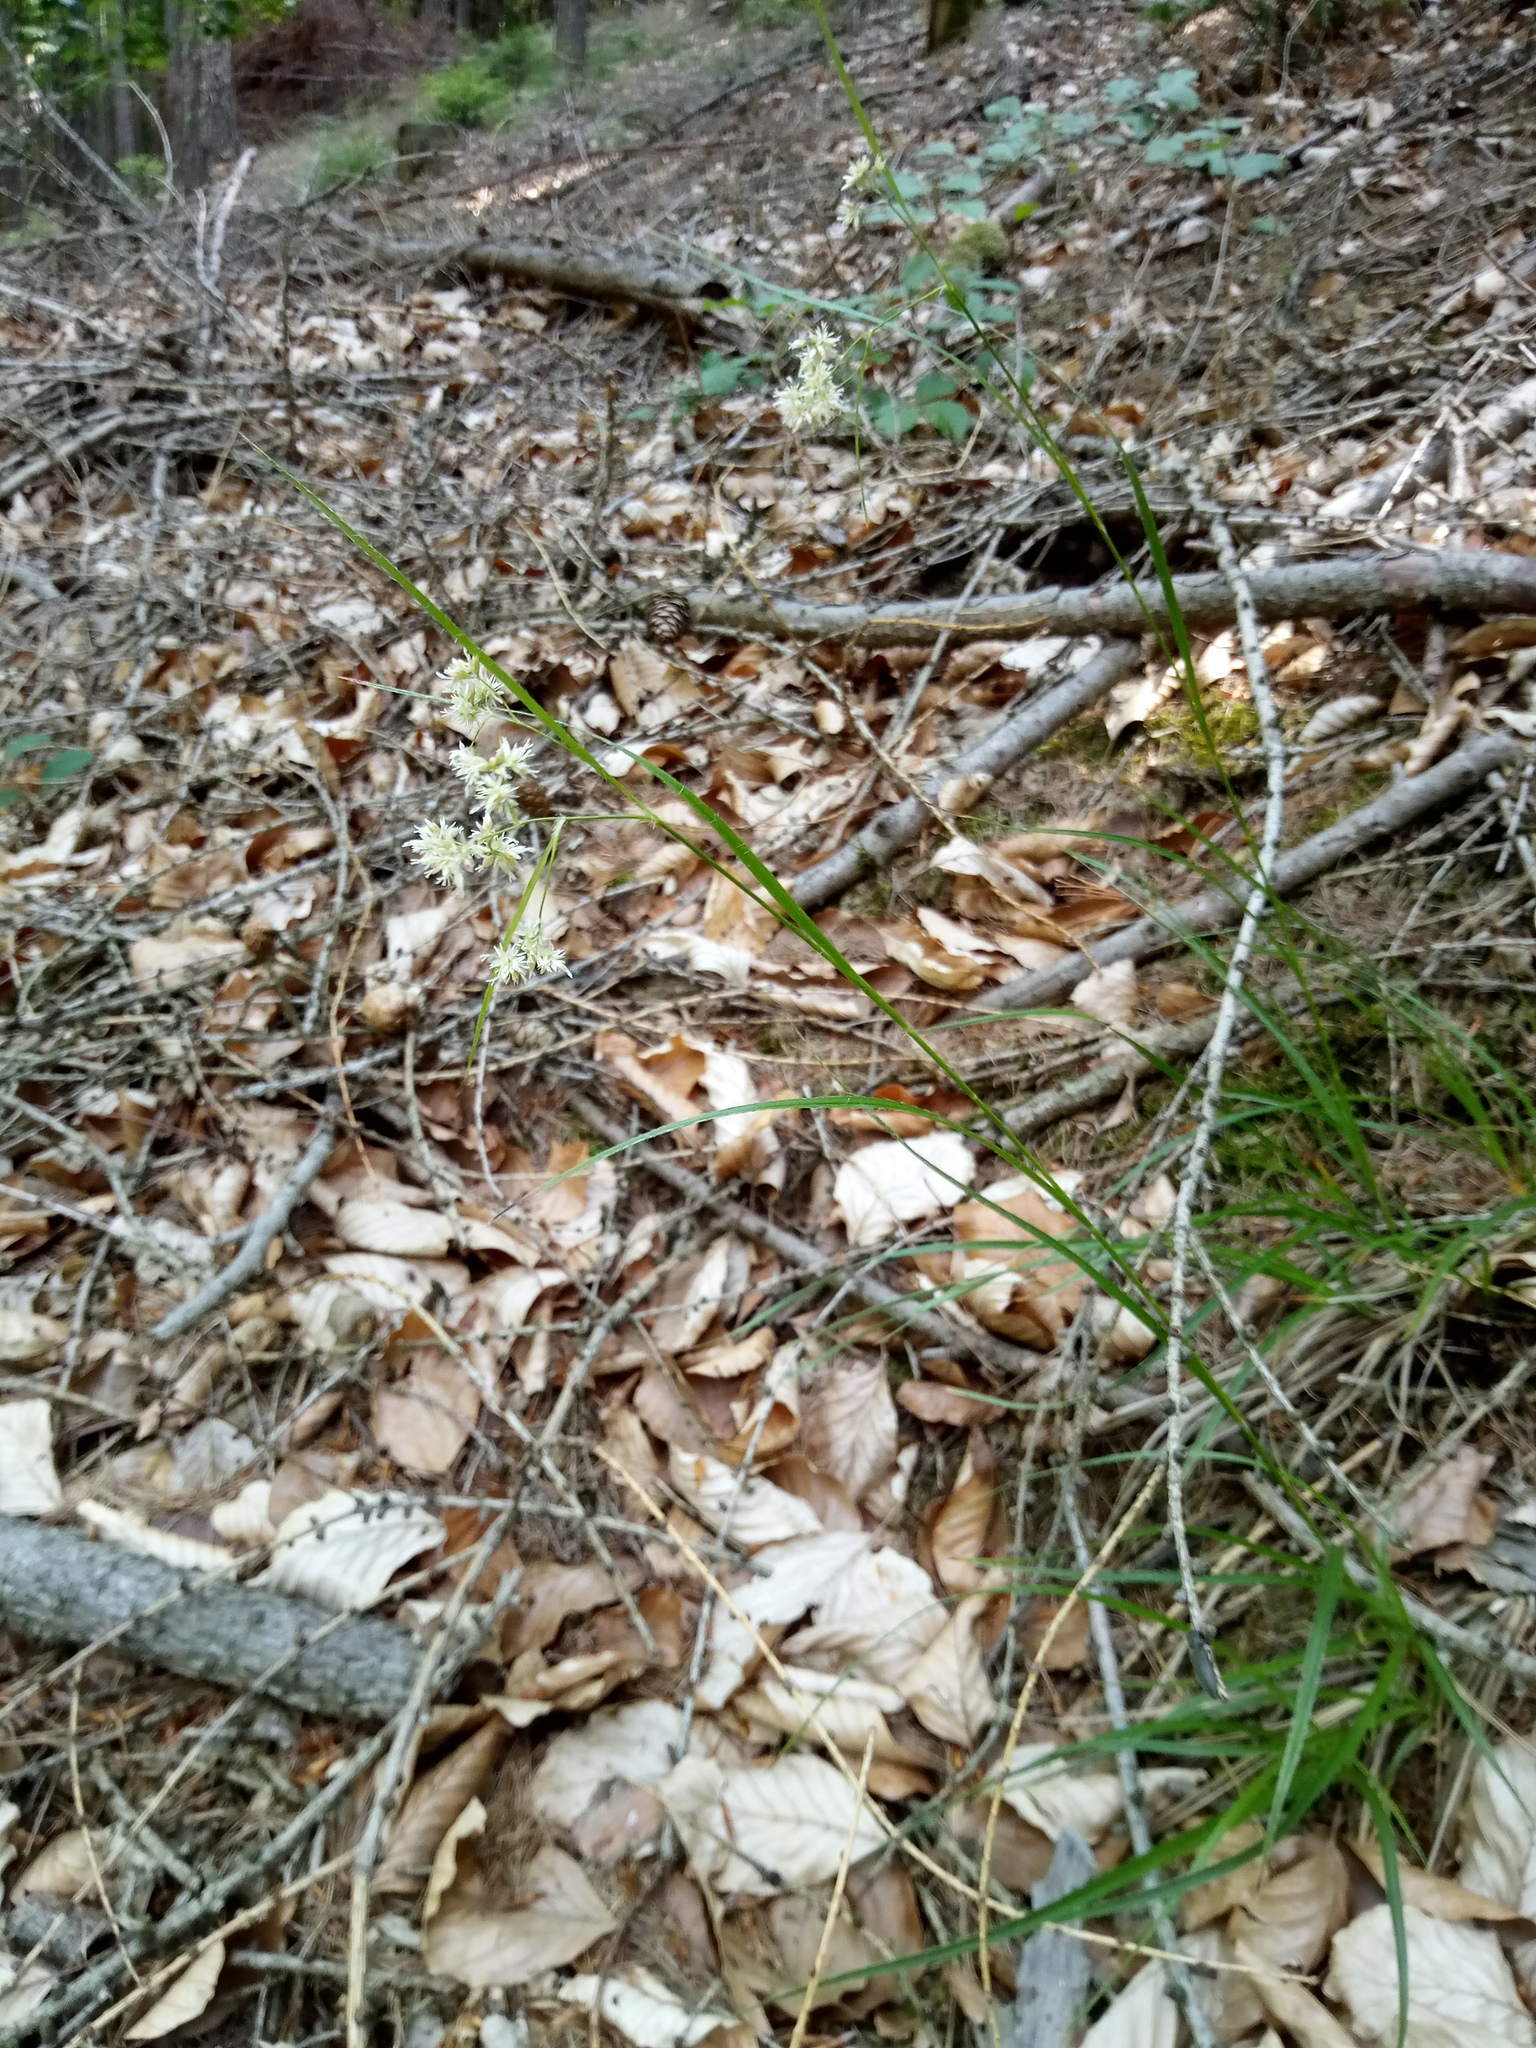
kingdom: Plantae
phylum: Tracheophyta
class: Liliopsida
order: Poales
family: Juncaceae
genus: Luzula
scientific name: Luzula luzuloides
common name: White wood-rush
